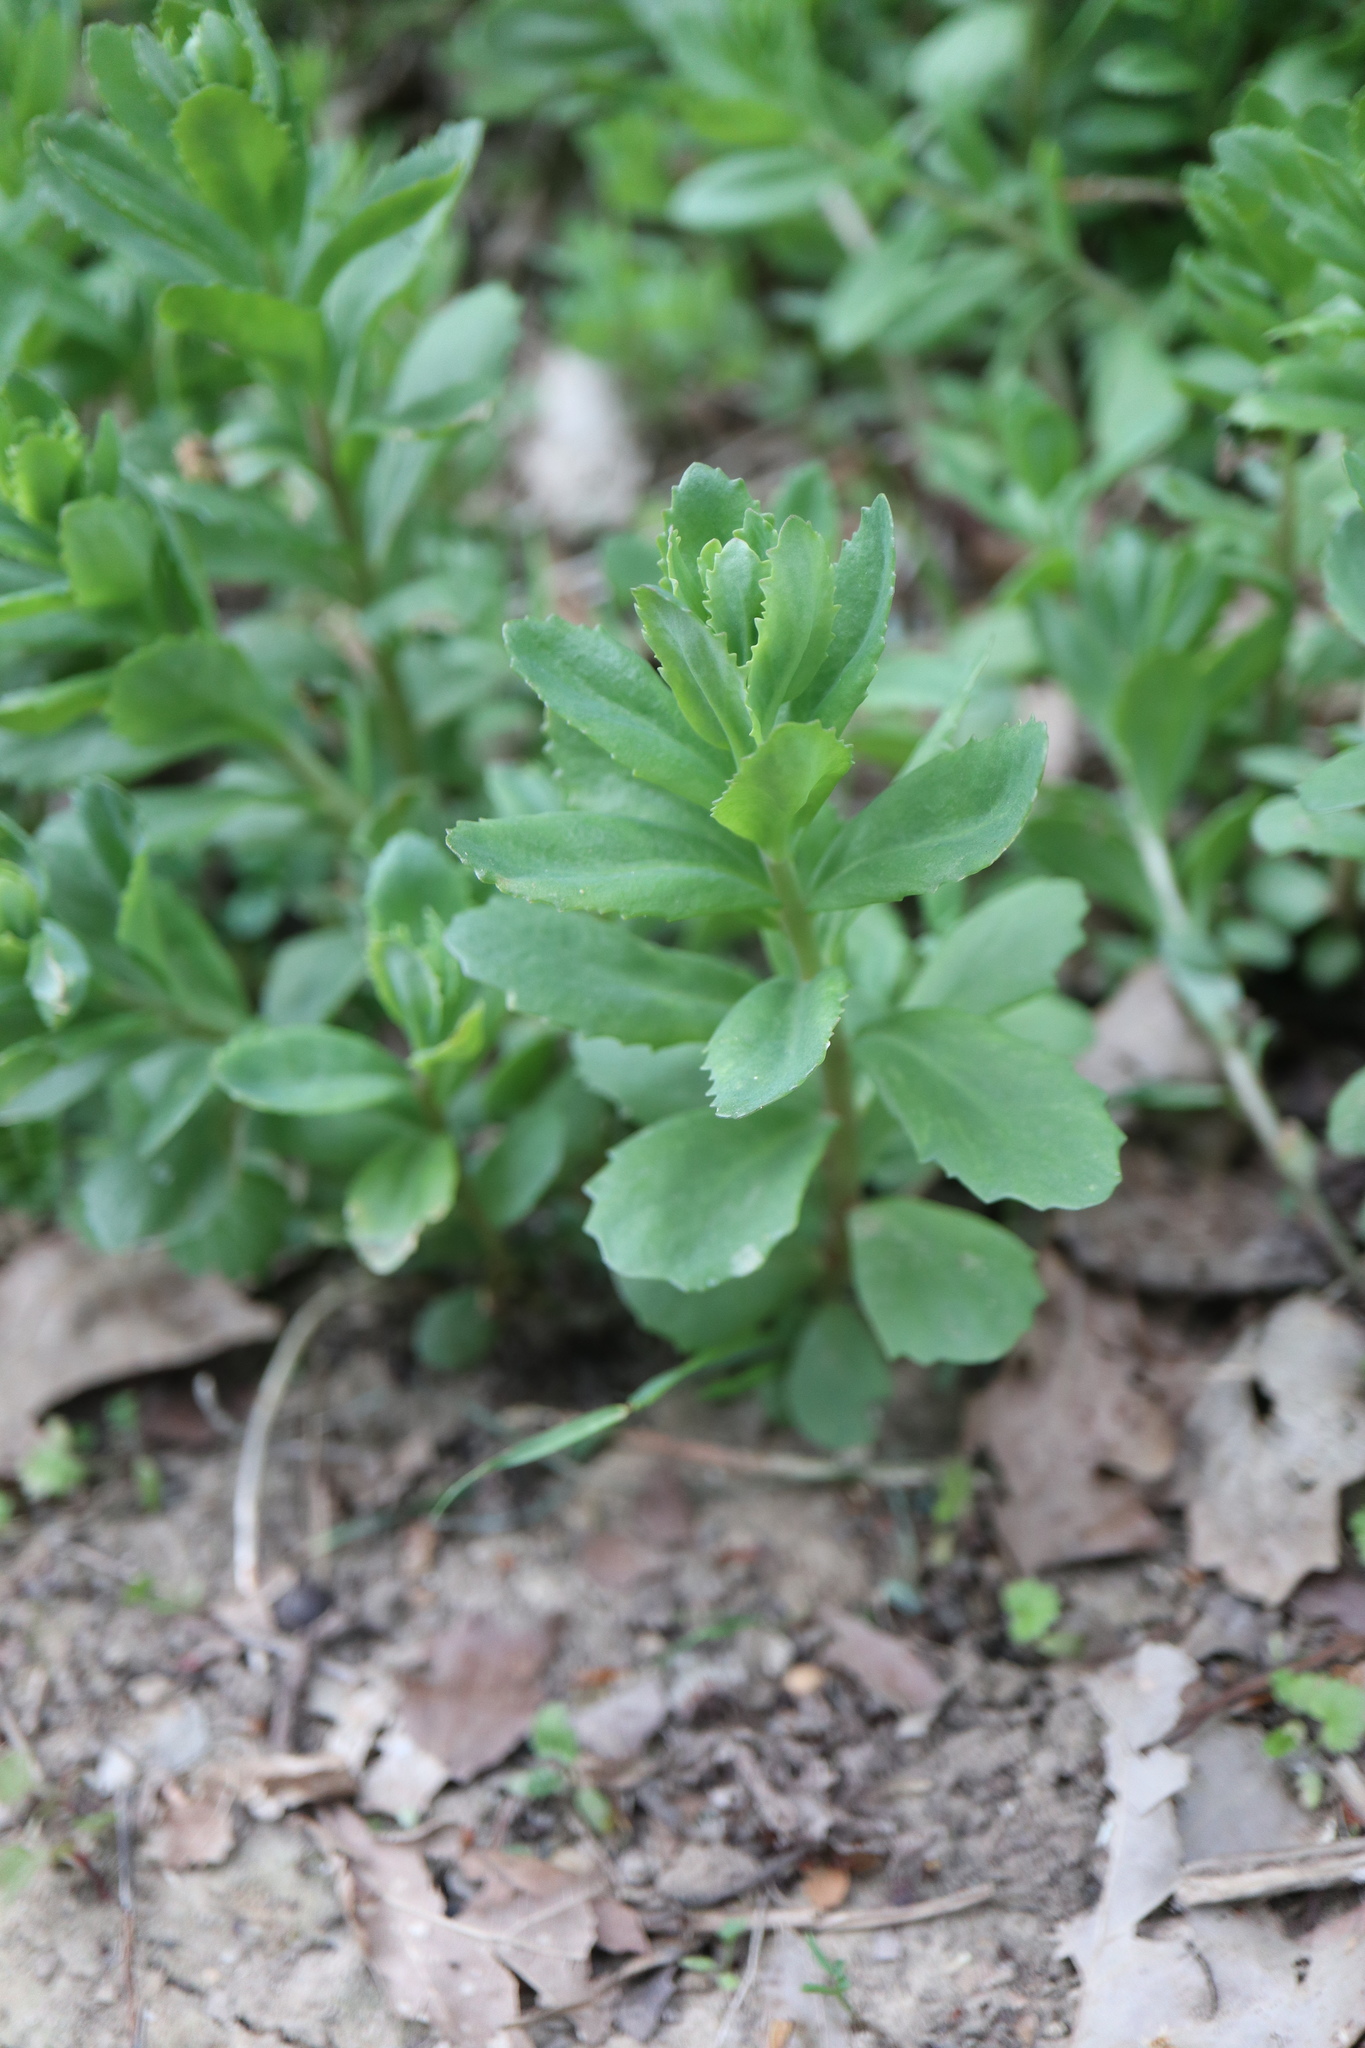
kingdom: Plantae
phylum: Tracheophyta
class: Magnoliopsida
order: Saxifragales
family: Crassulaceae
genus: Hylotelephium
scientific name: Hylotelephium telephium
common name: Live-forever
